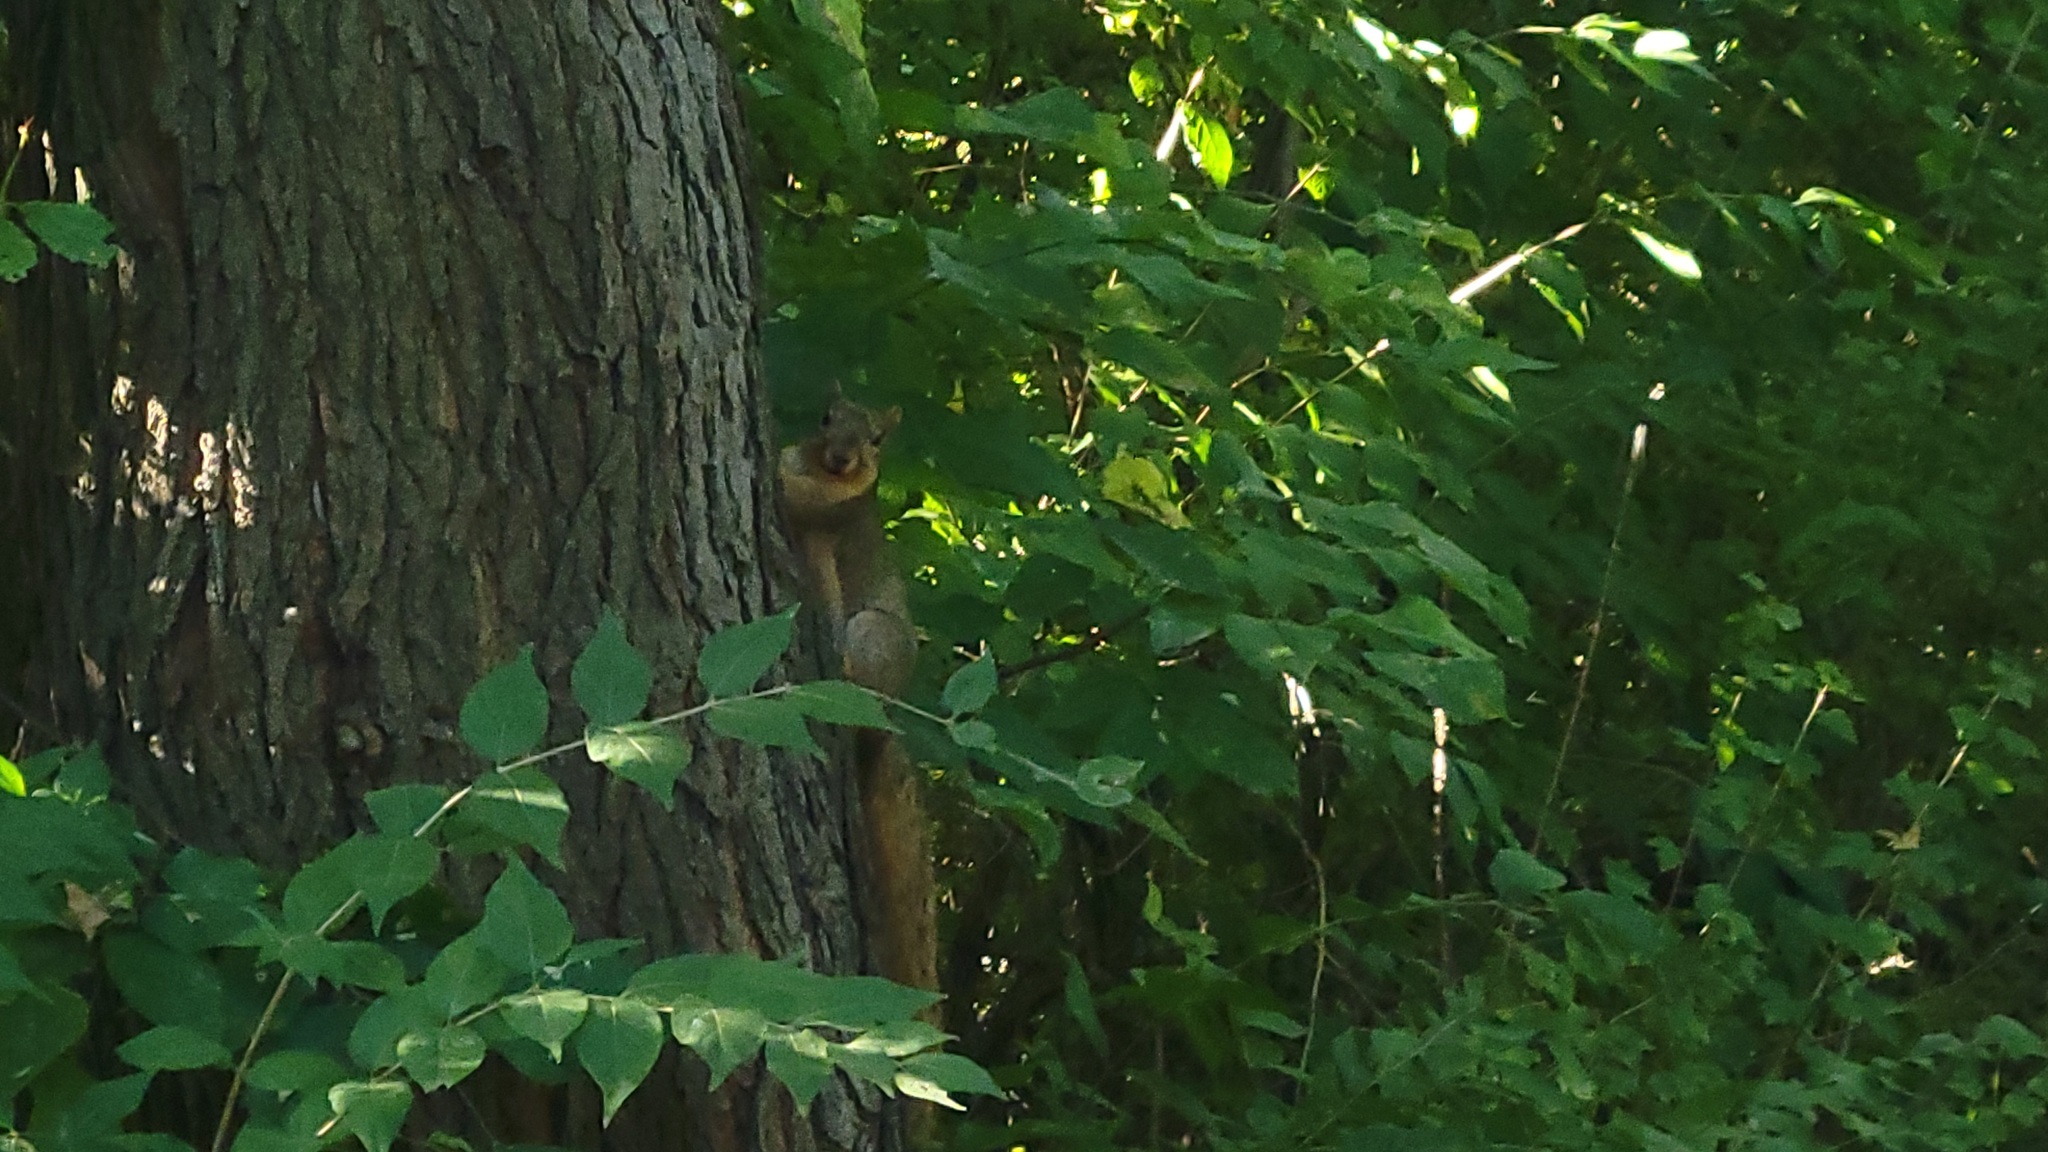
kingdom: Animalia
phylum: Chordata
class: Mammalia
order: Rodentia
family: Sciuridae
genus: Sciurus
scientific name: Sciurus niger
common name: Fox squirrel
